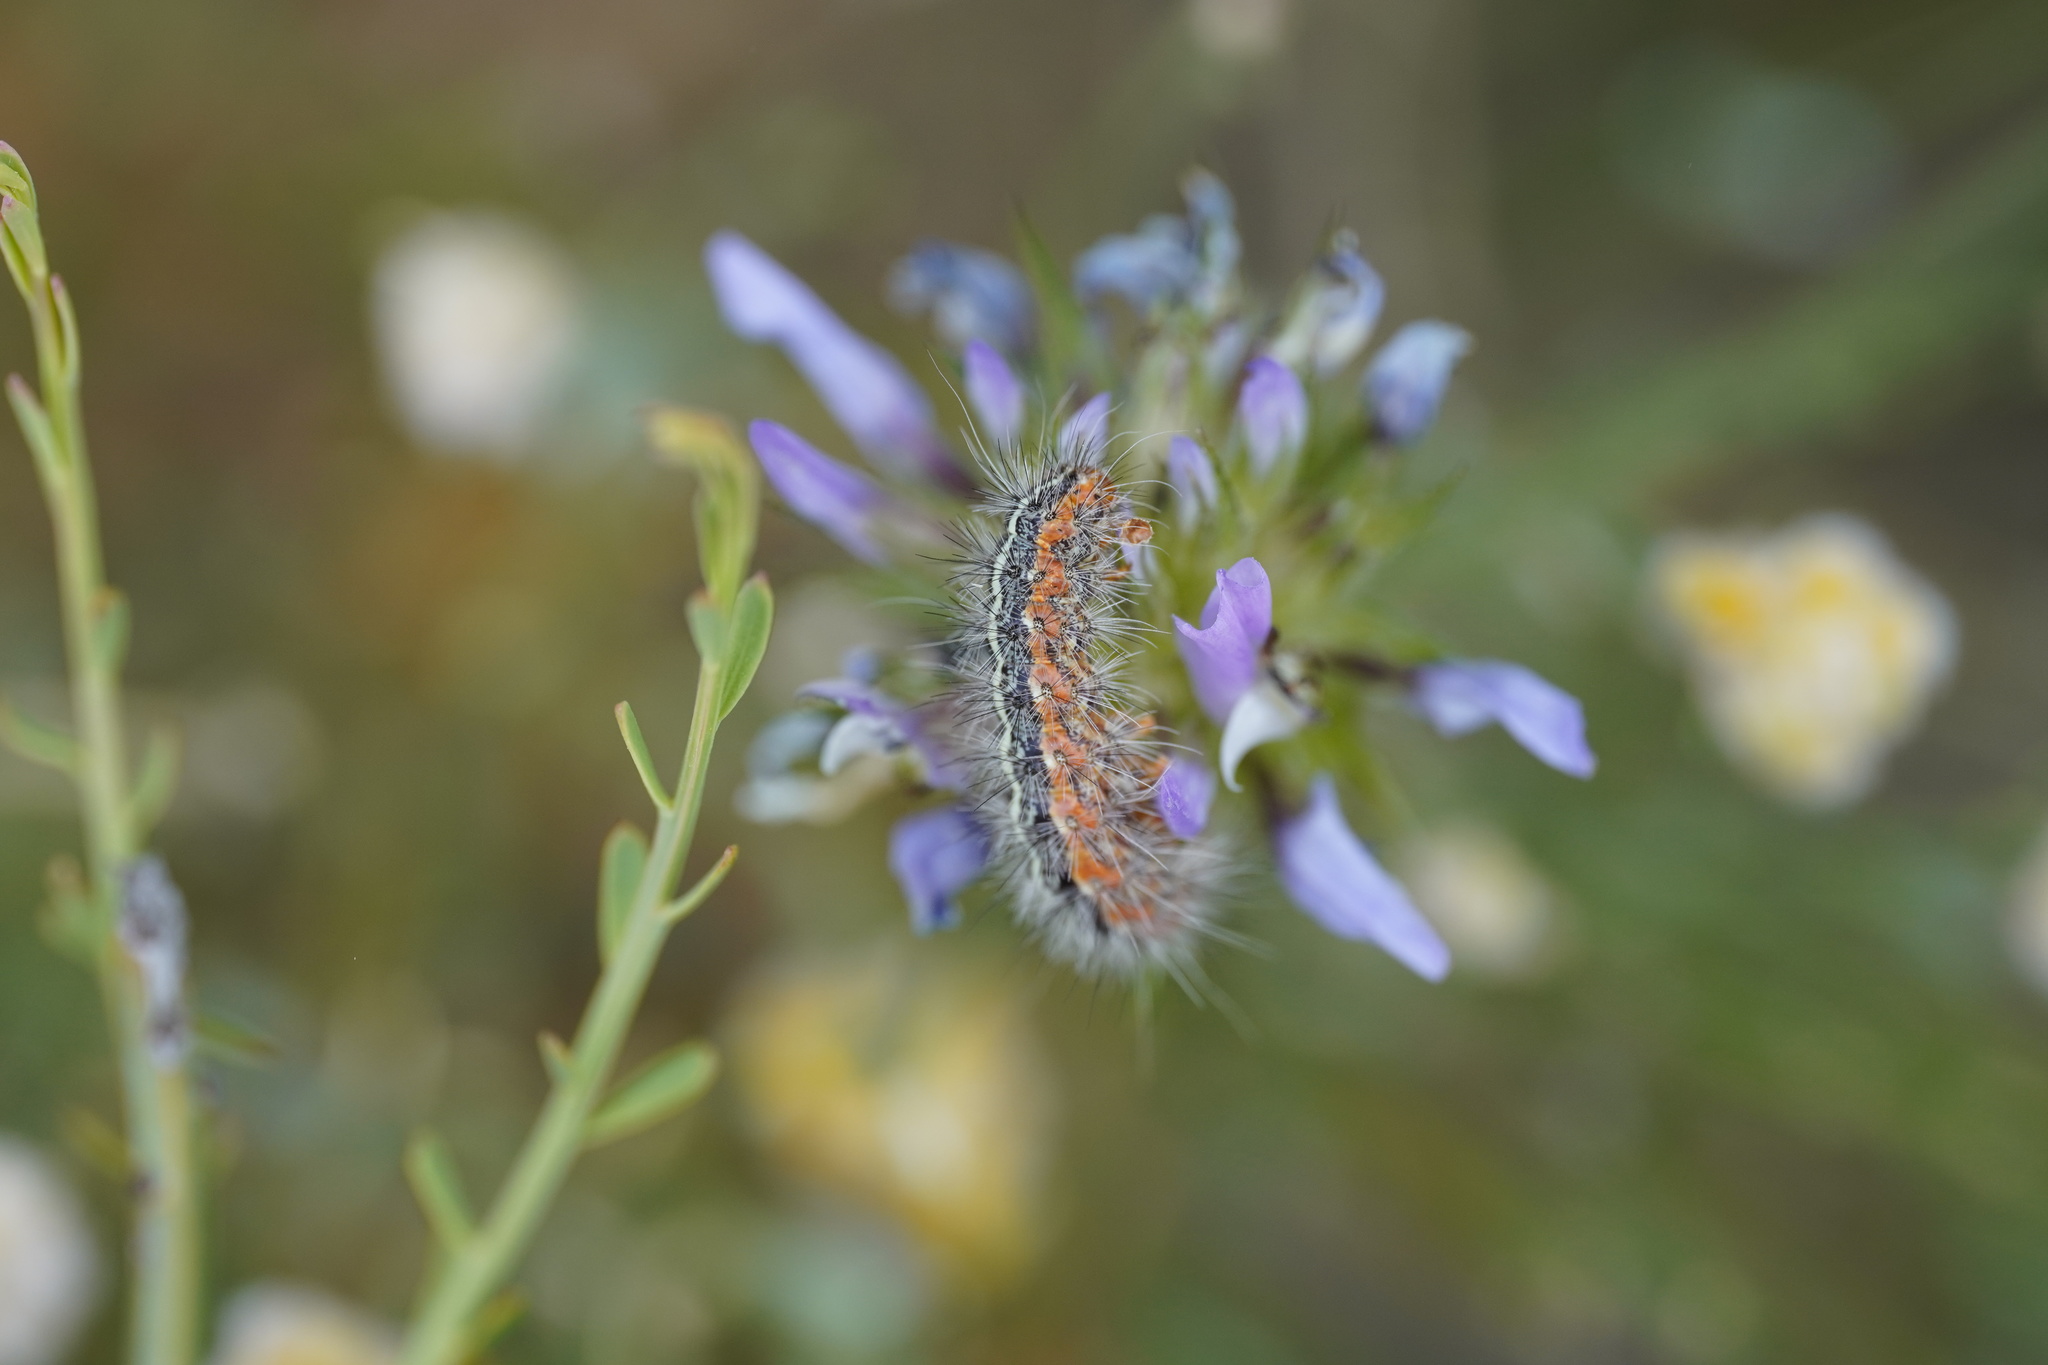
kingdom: Animalia
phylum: Arthropoda
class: Insecta
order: Lepidoptera
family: Erebidae
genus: Artimelia
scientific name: Artimelia latreillii
